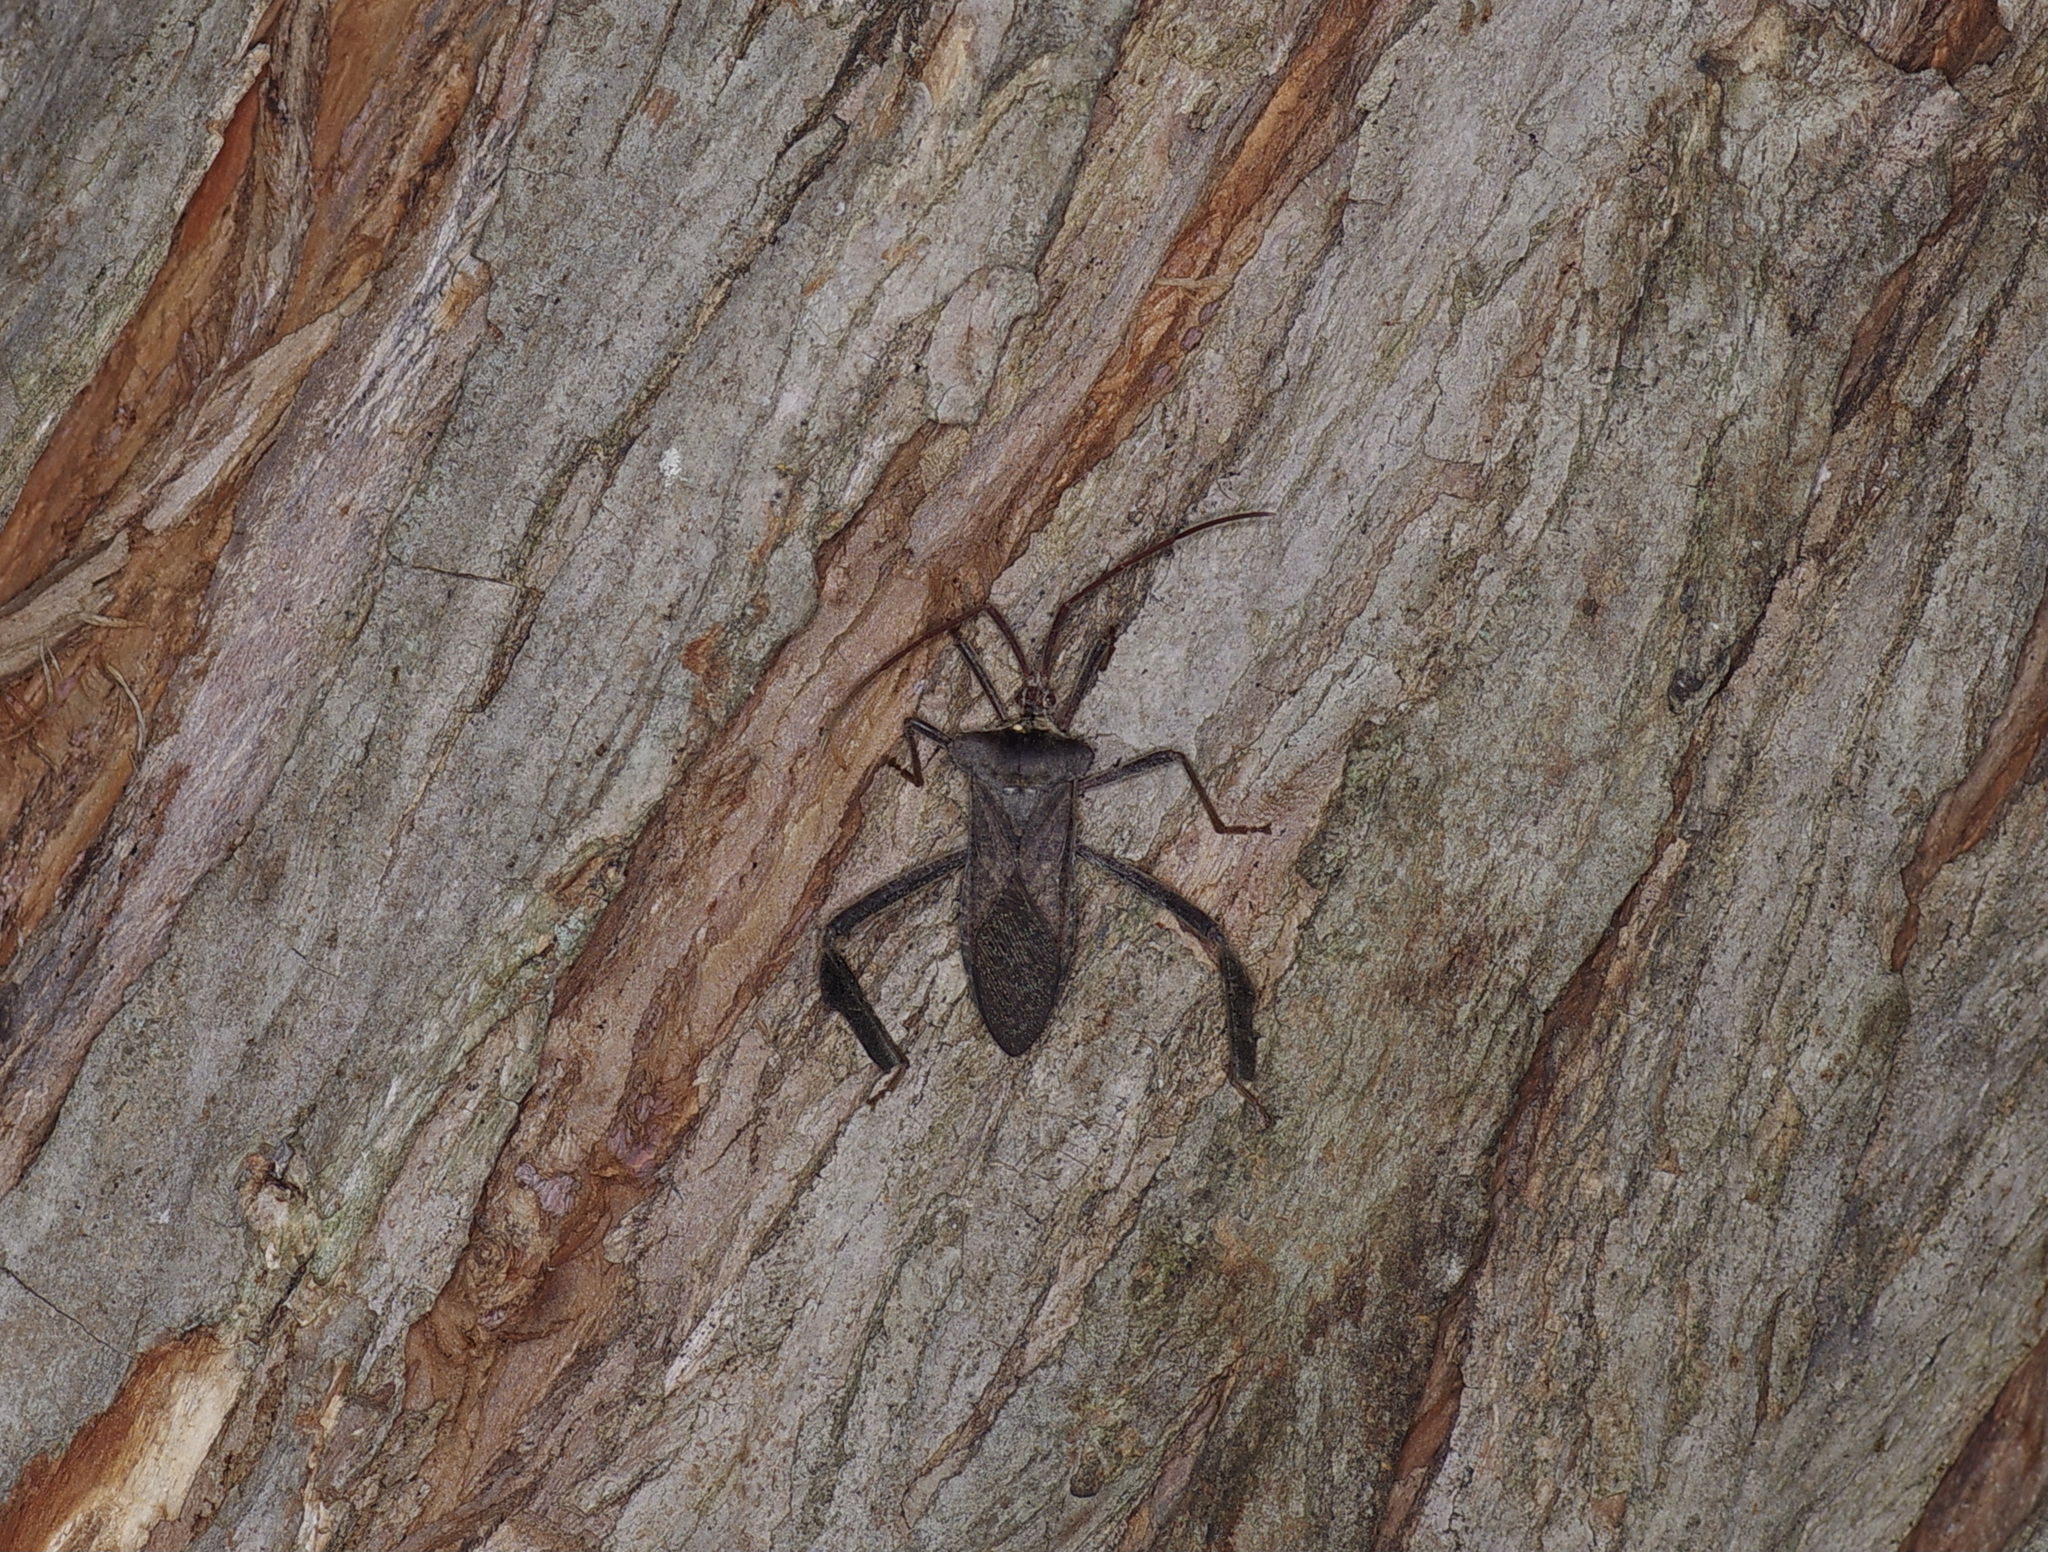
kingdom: Animalia
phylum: Arthropoda
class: Insecta
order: Hemiptera
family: Coreidae
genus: Acanthocephala
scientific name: Acanthocephala declivis
